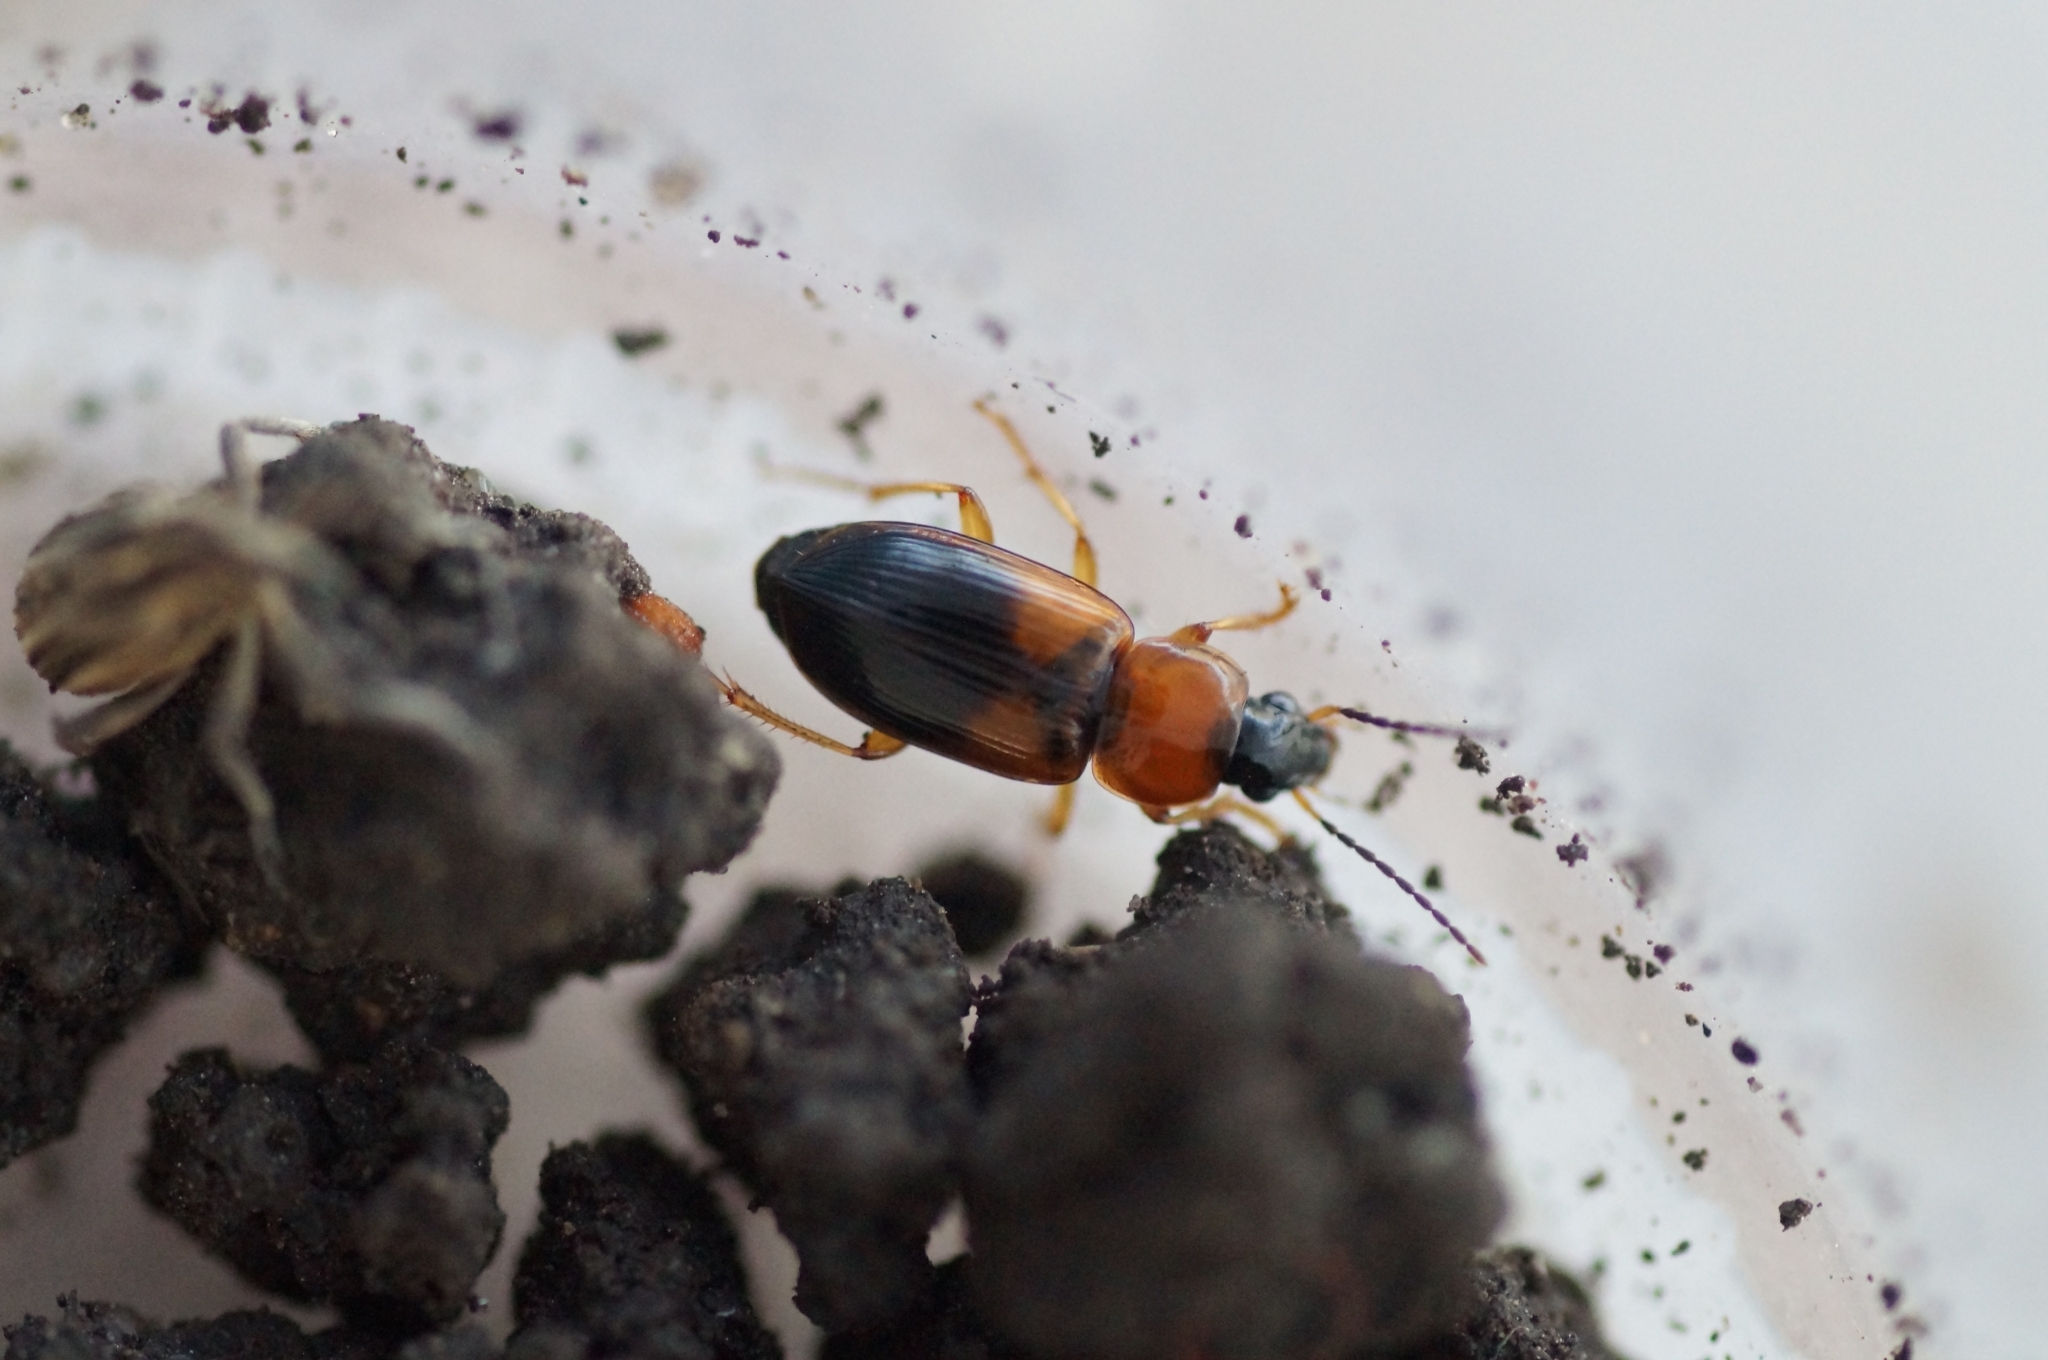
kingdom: Animalia
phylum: Arthropoda
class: Insecta
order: Coleoptera
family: Carabidae
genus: Stenolophus
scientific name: Stenolophus teutonus
